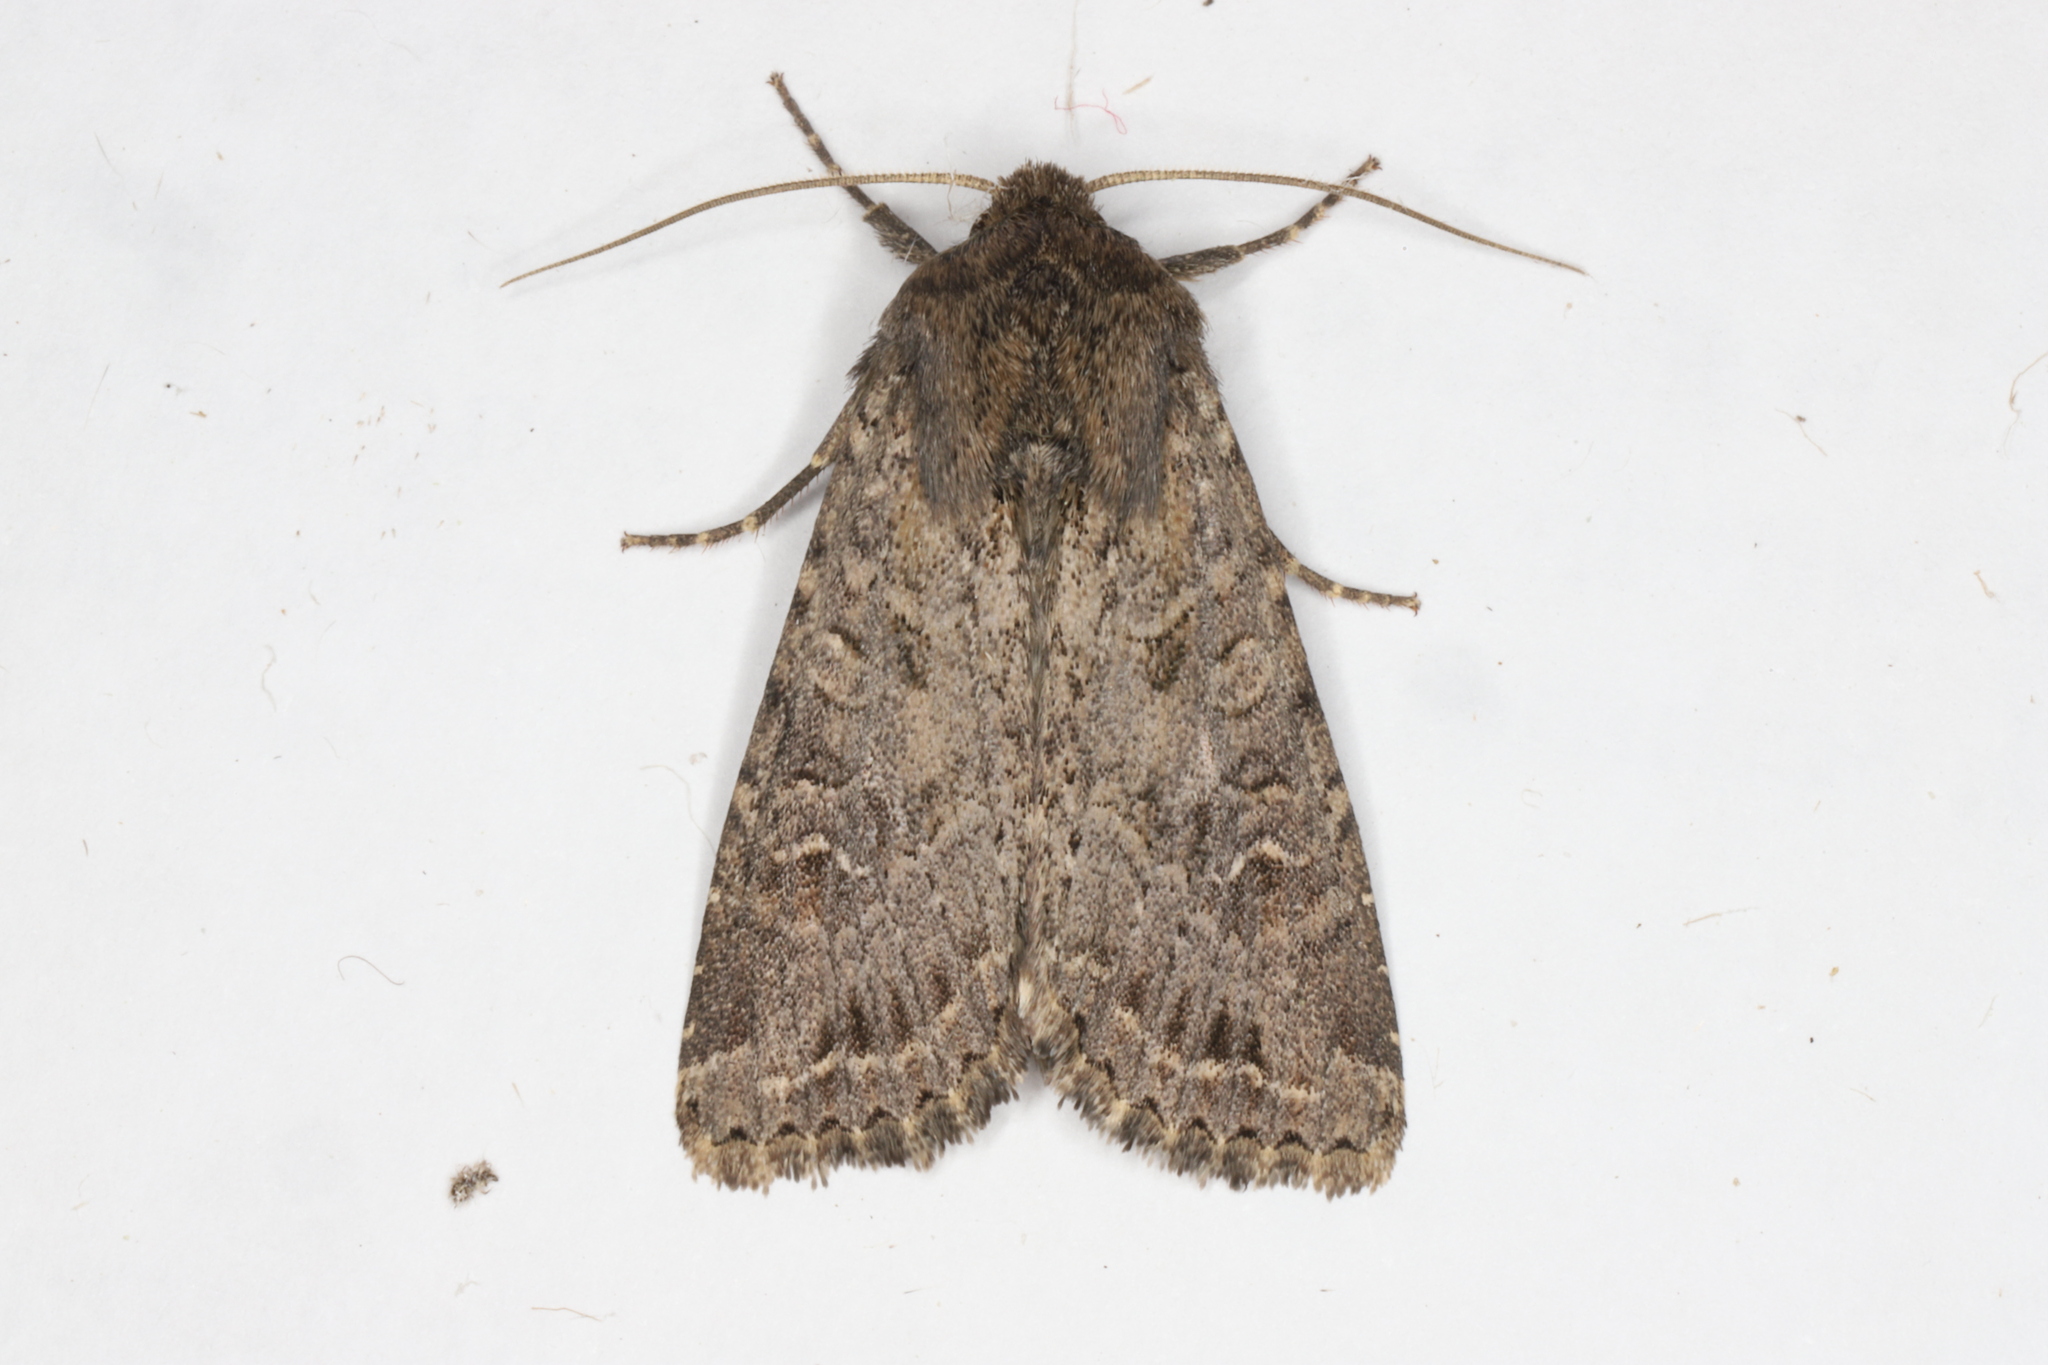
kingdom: Animalia
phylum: Arthropoda
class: Insecta
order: Lepidoptera
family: Noctuidae
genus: Apamea
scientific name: Apamea devastator
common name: Glassy cutworm
